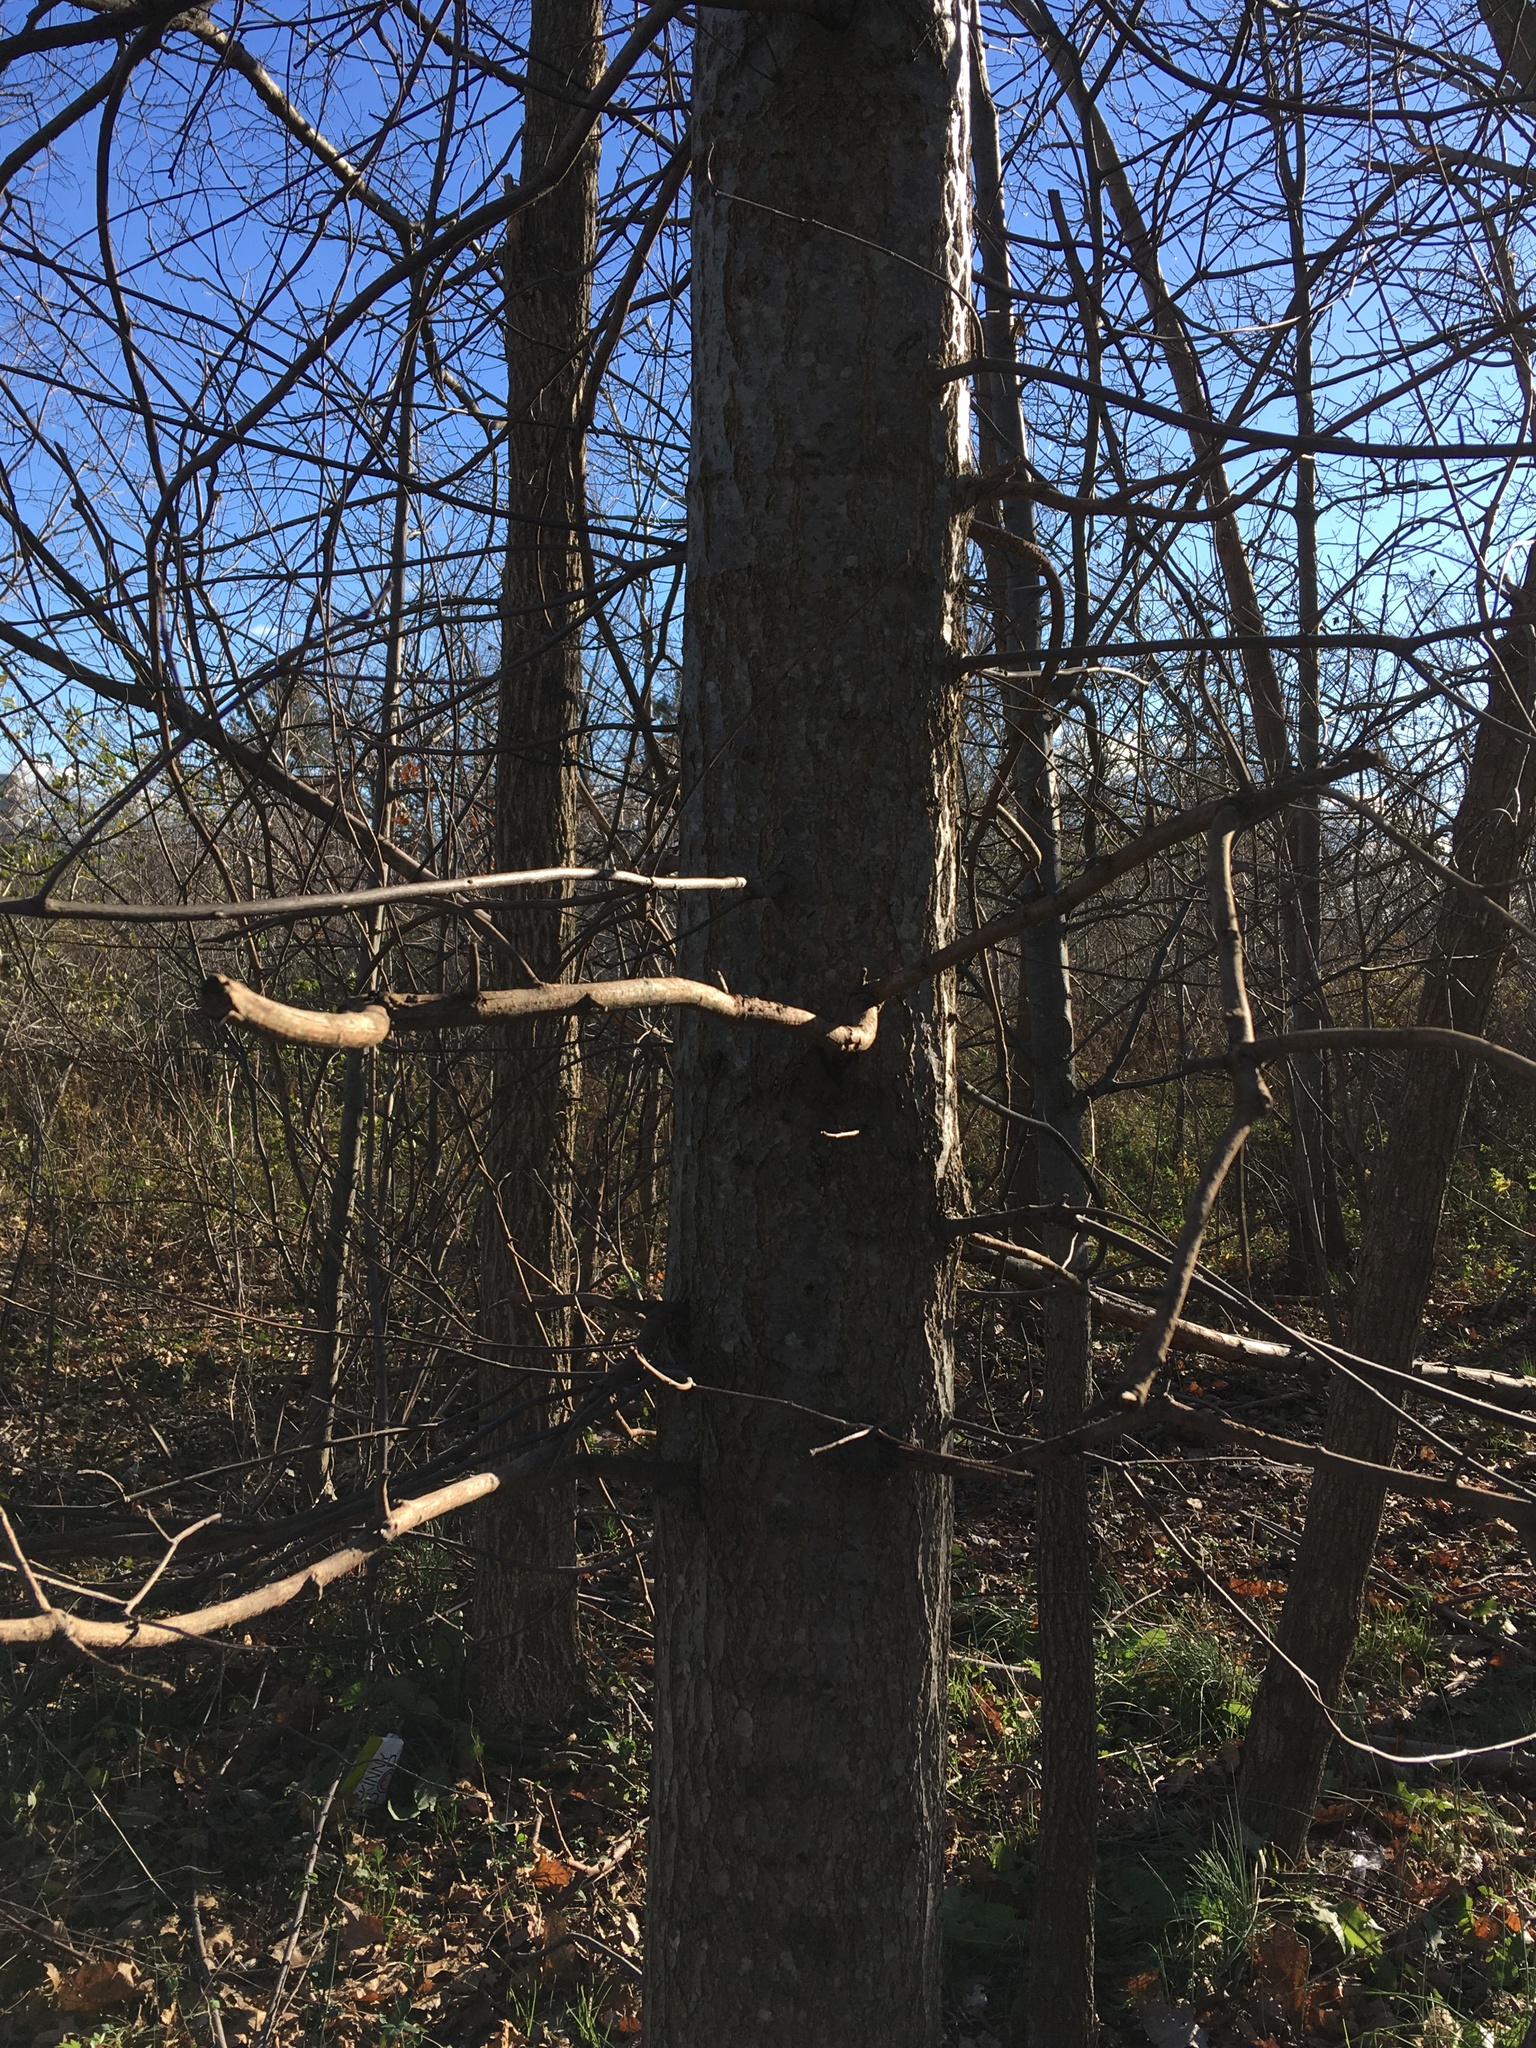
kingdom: Plantae
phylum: Tracheophyta
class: Magnoliopsida
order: Fagales
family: Fagaceae
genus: Quercus
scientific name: Quercus palustris
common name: Pin oak
